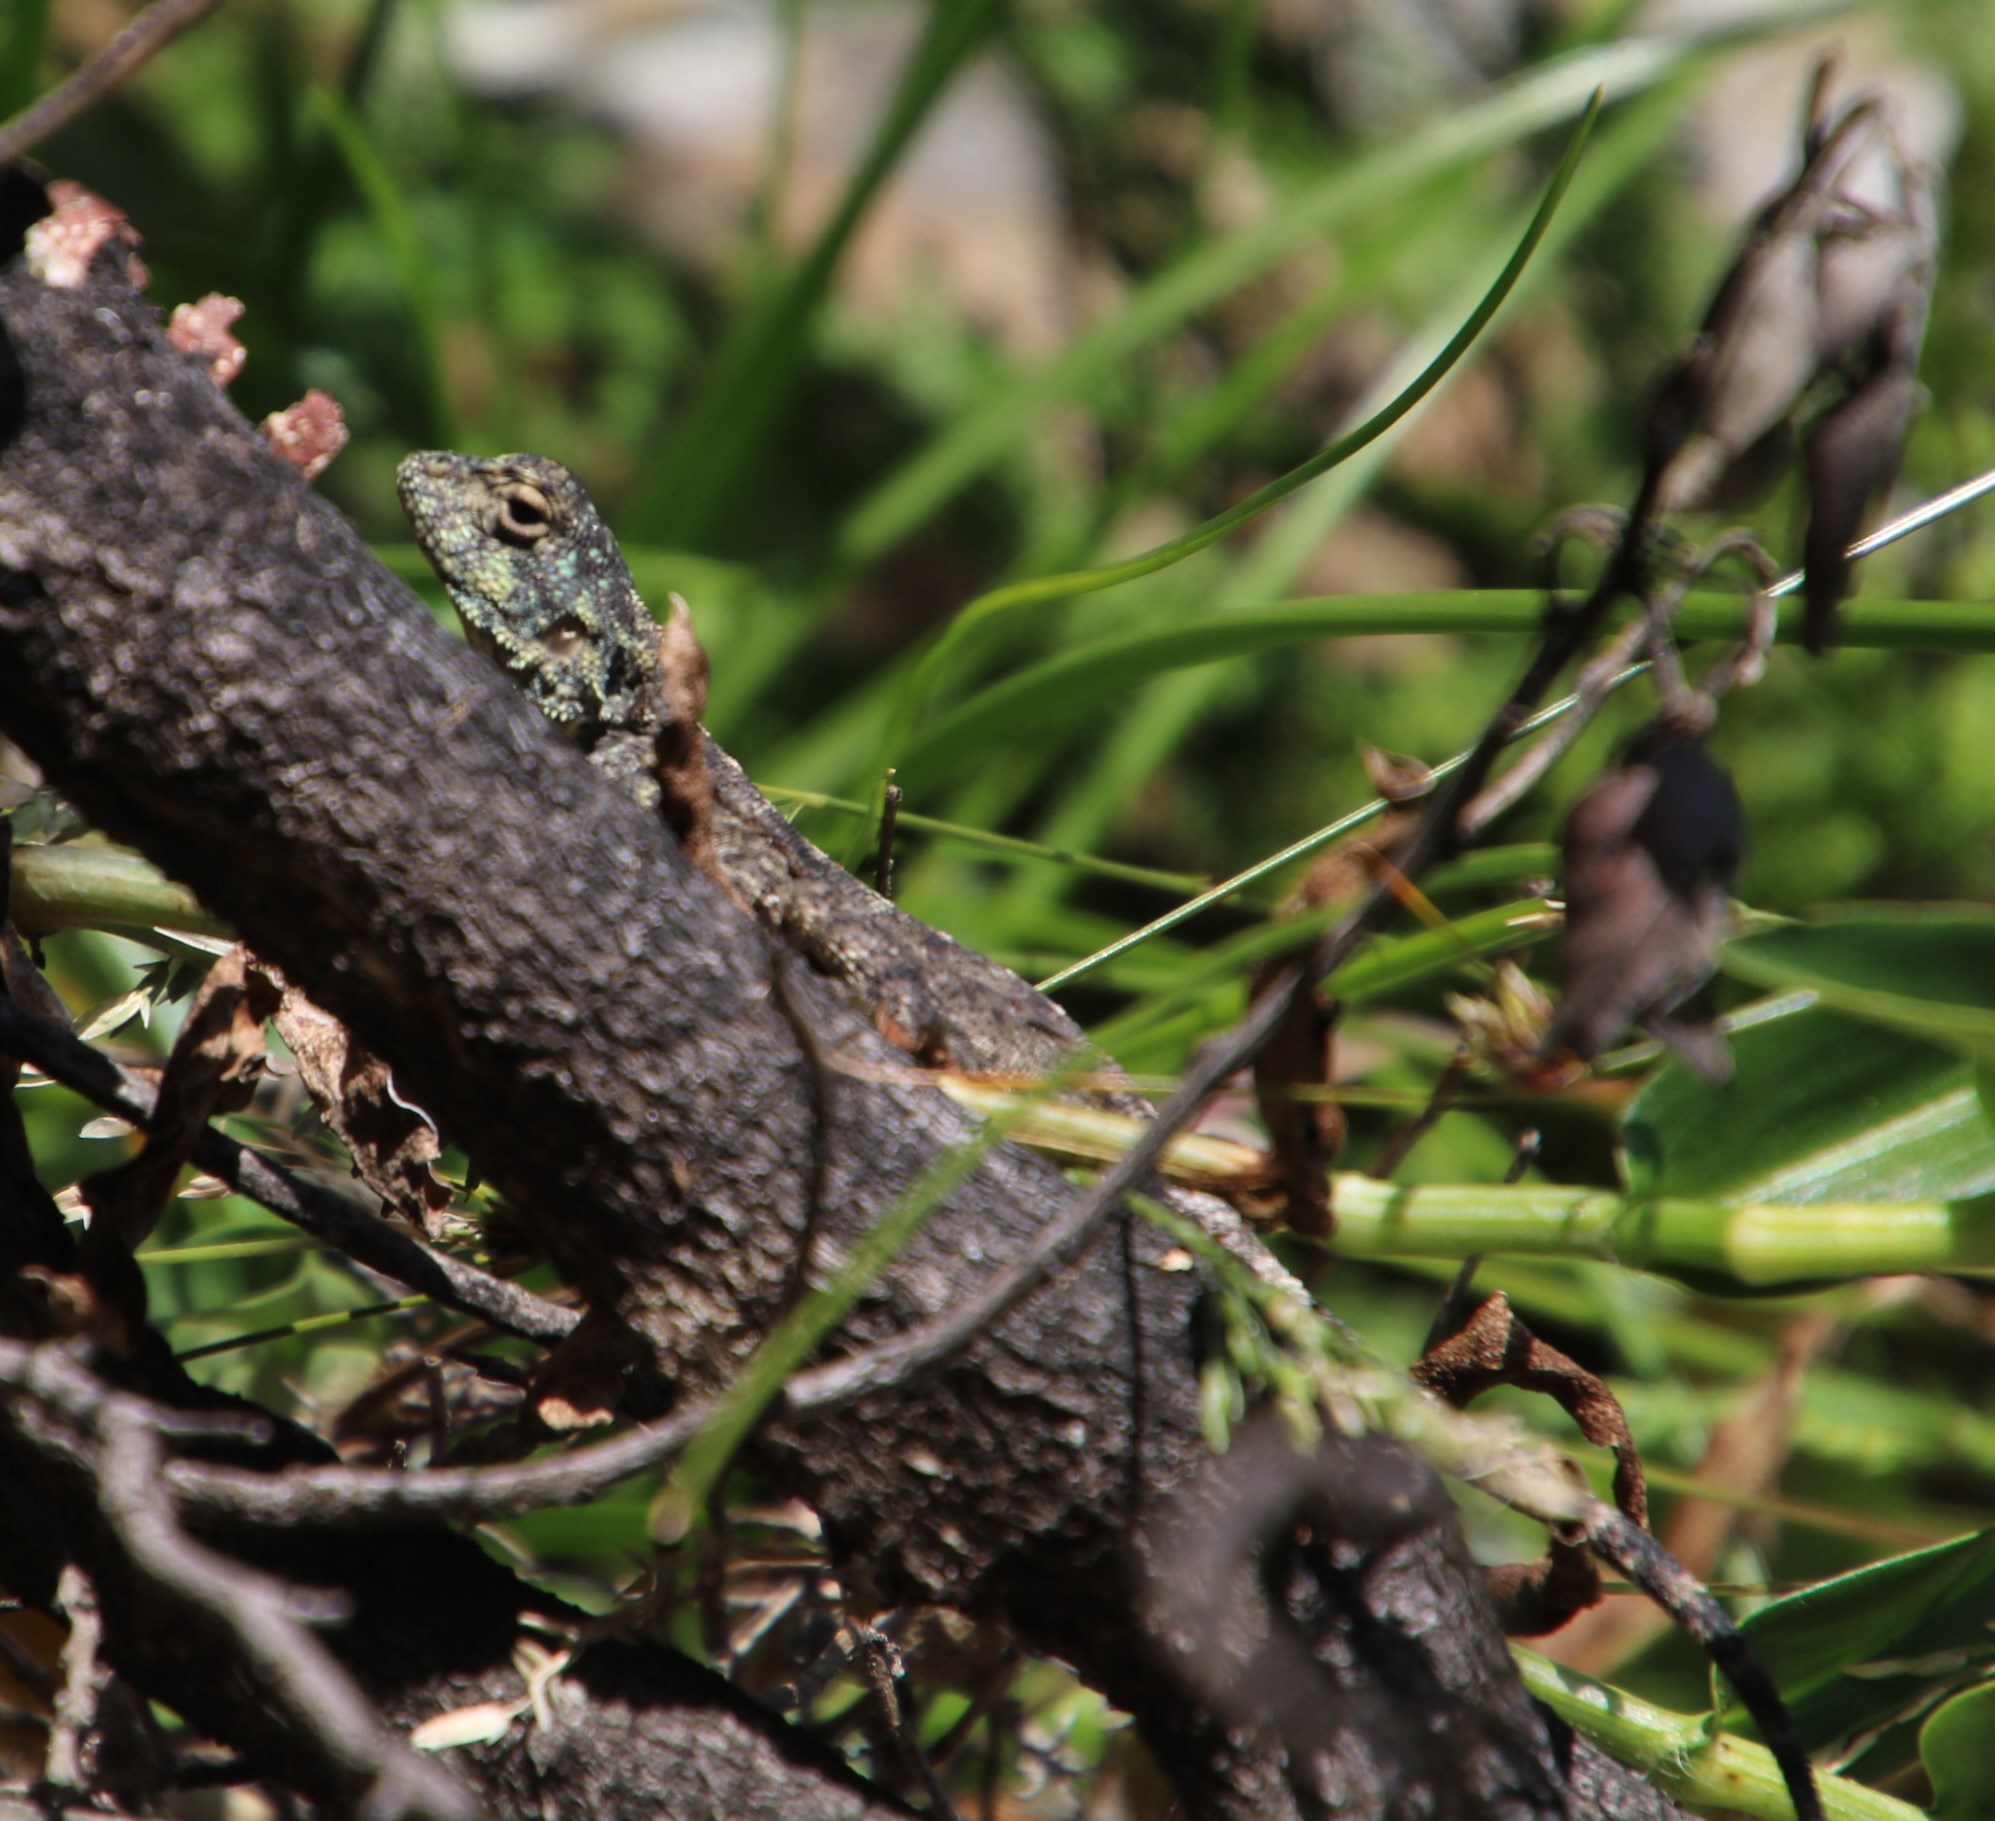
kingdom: Animalia
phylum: Chordata
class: Squamata
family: Agamidae
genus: Agama
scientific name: Agama atra
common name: Southern african rock agama
